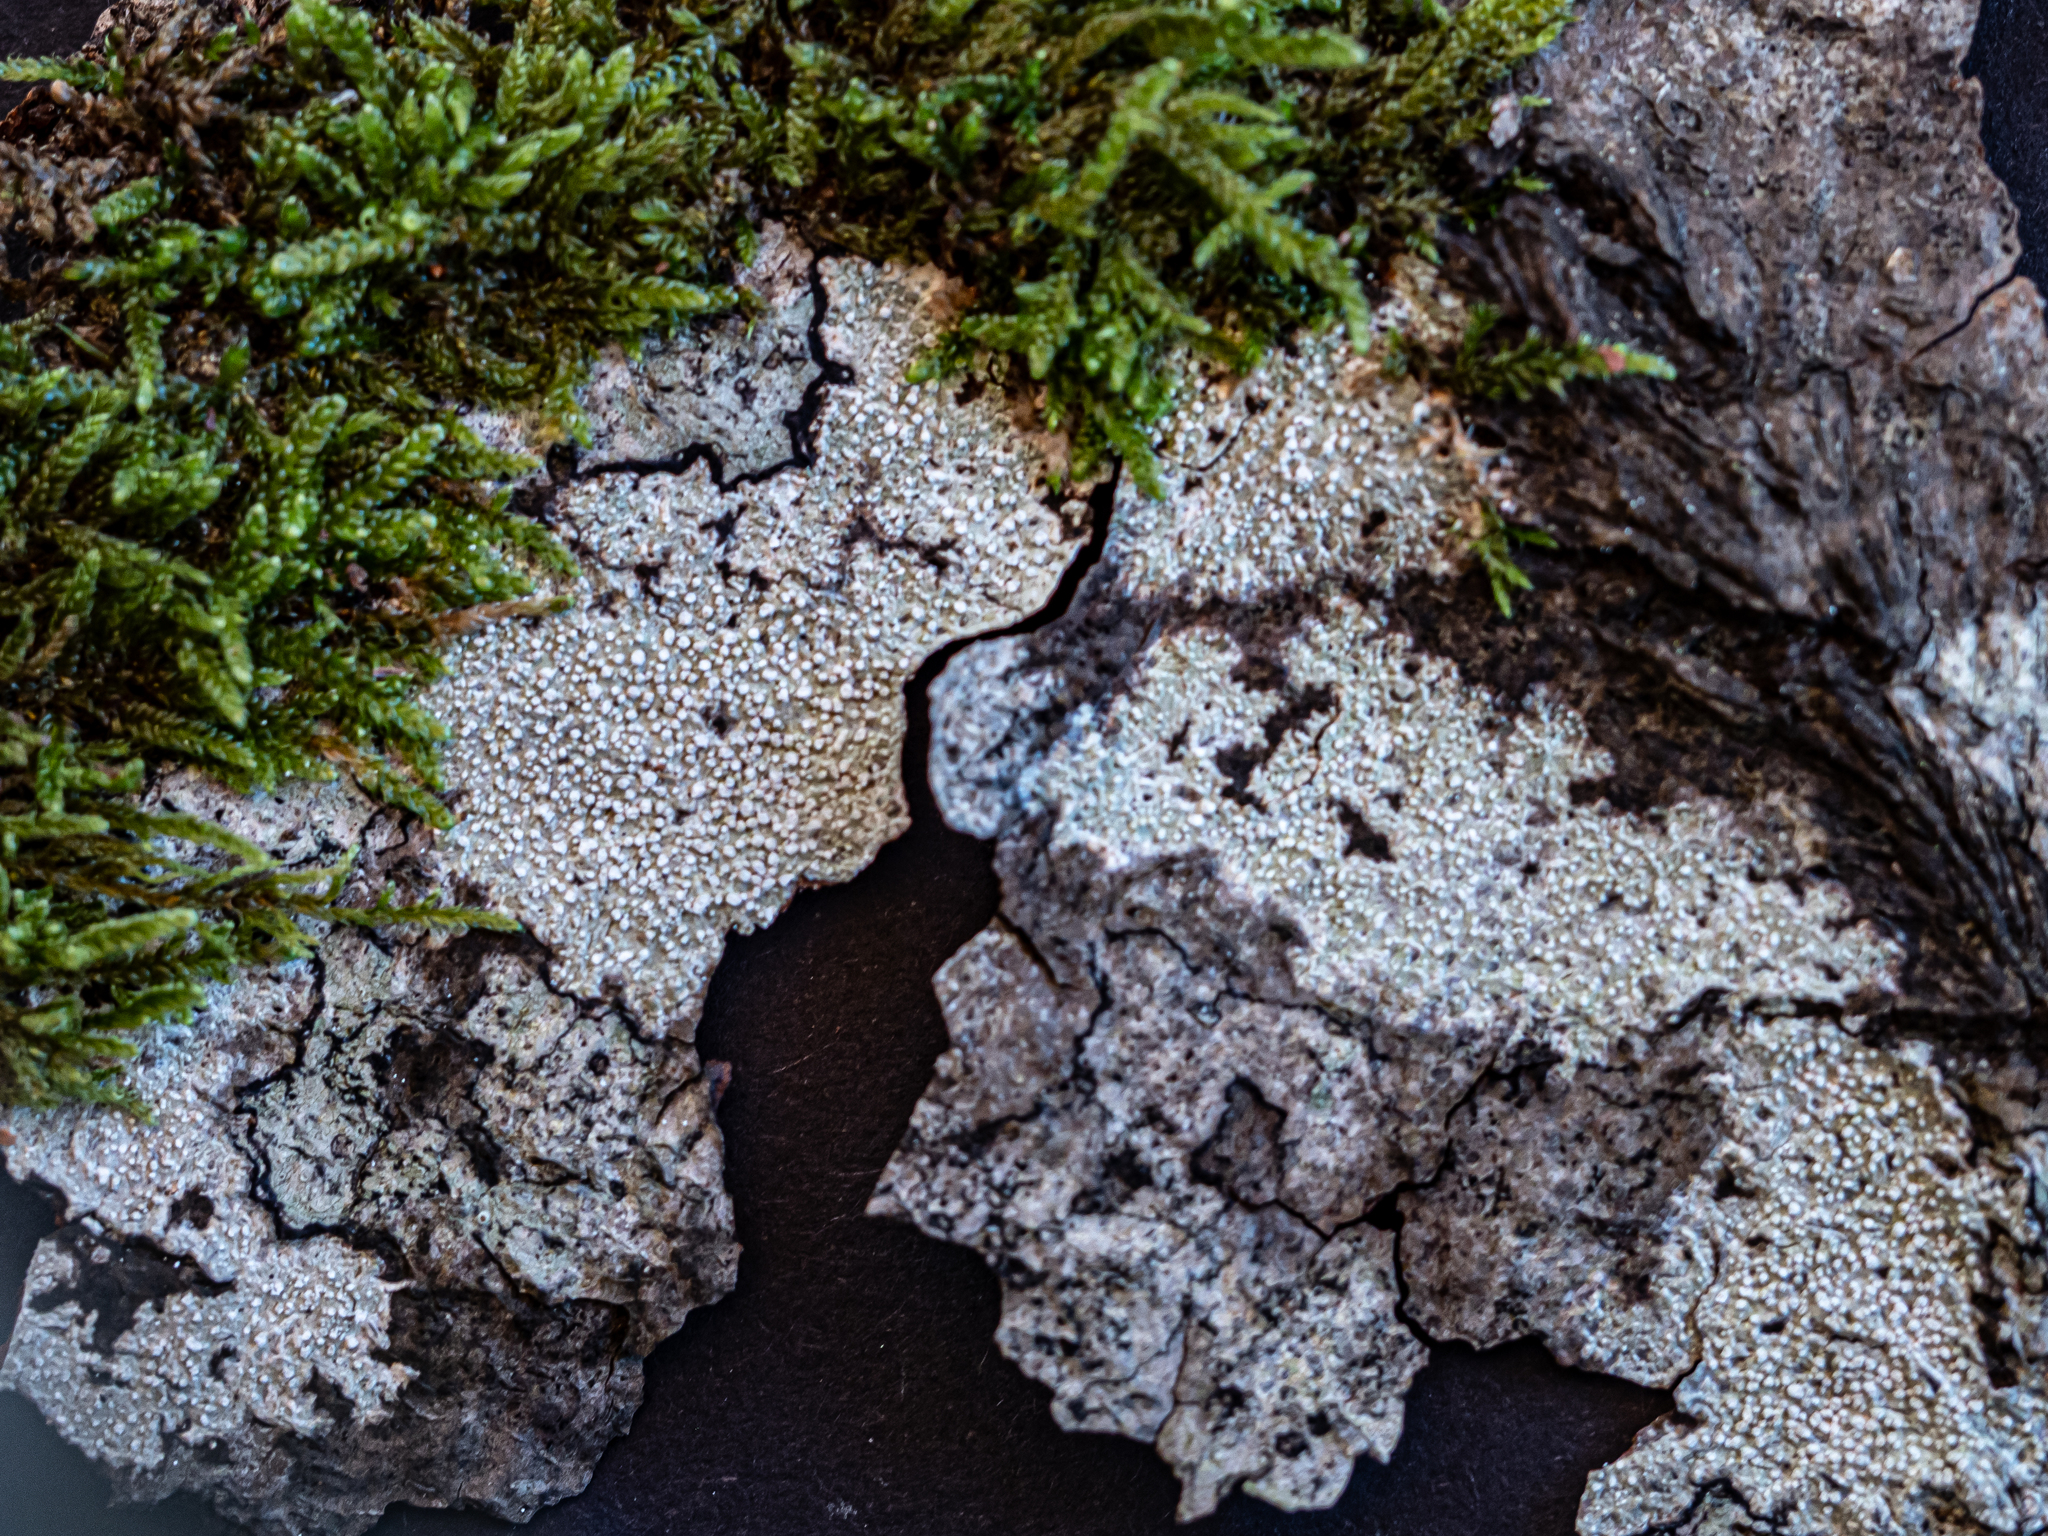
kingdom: Fungi
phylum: Ascomycota
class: Lecanoromycetes
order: Pertusariales
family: Pertusariaceae
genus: Lepra
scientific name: Lepra amara
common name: Bitter wart lichen
